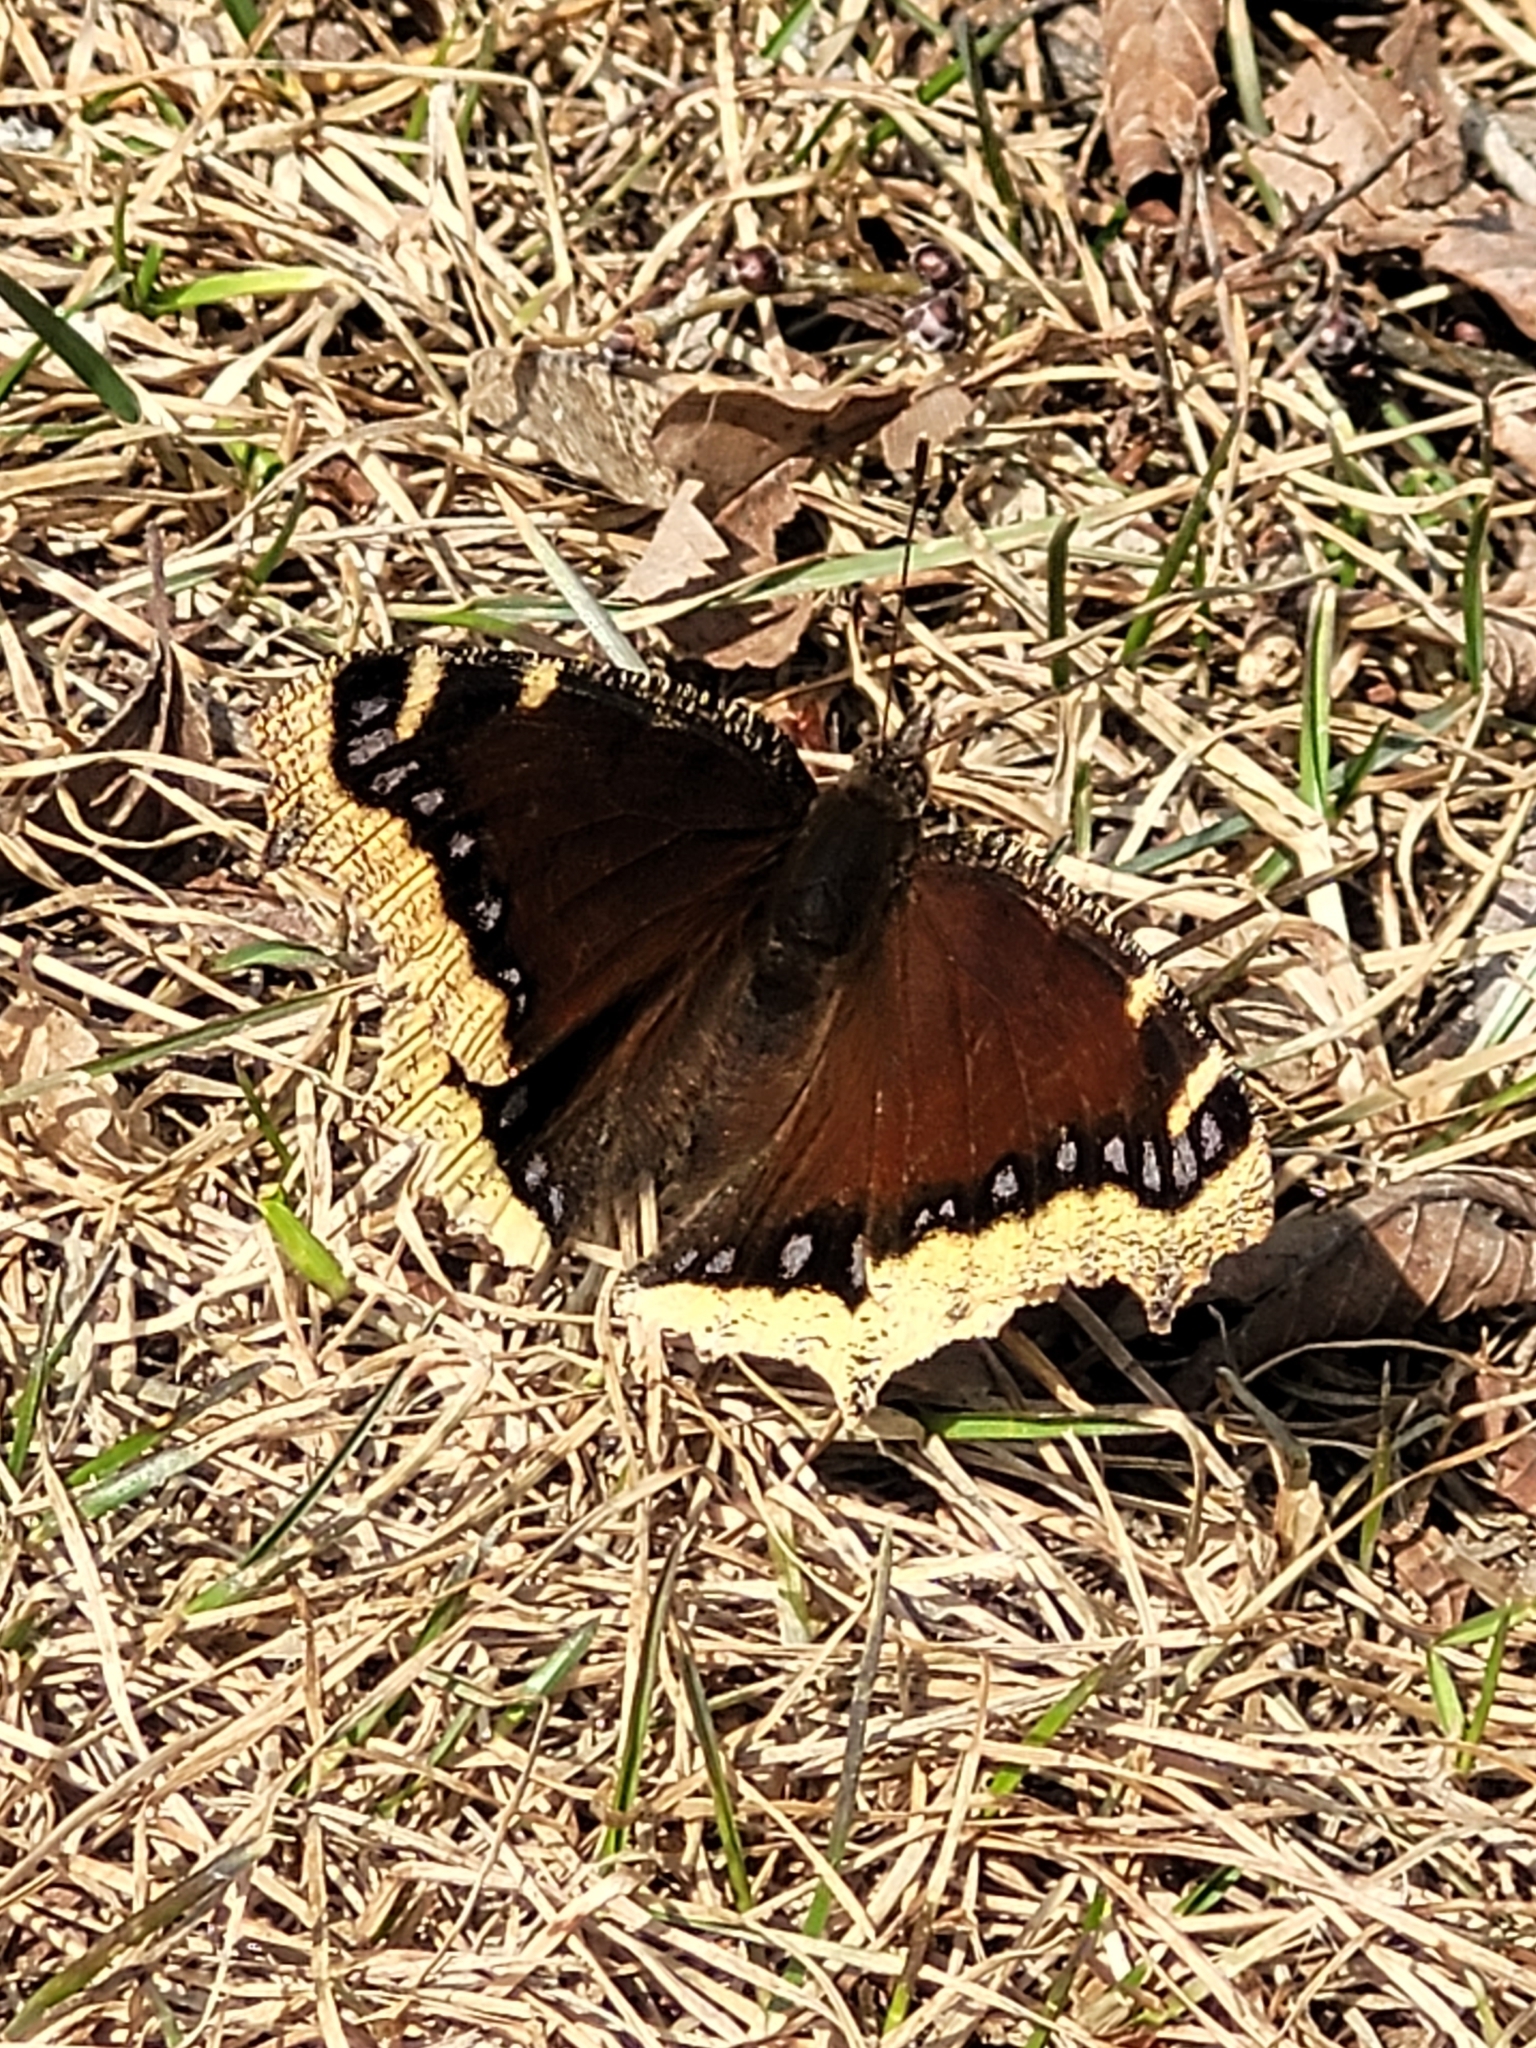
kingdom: Animalia
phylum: Arthropoda
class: Insecta
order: Lepidoptera
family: Nymphalidae
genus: Nymphalis
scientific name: Nymphalis antiopa
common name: Camberwell beauty
